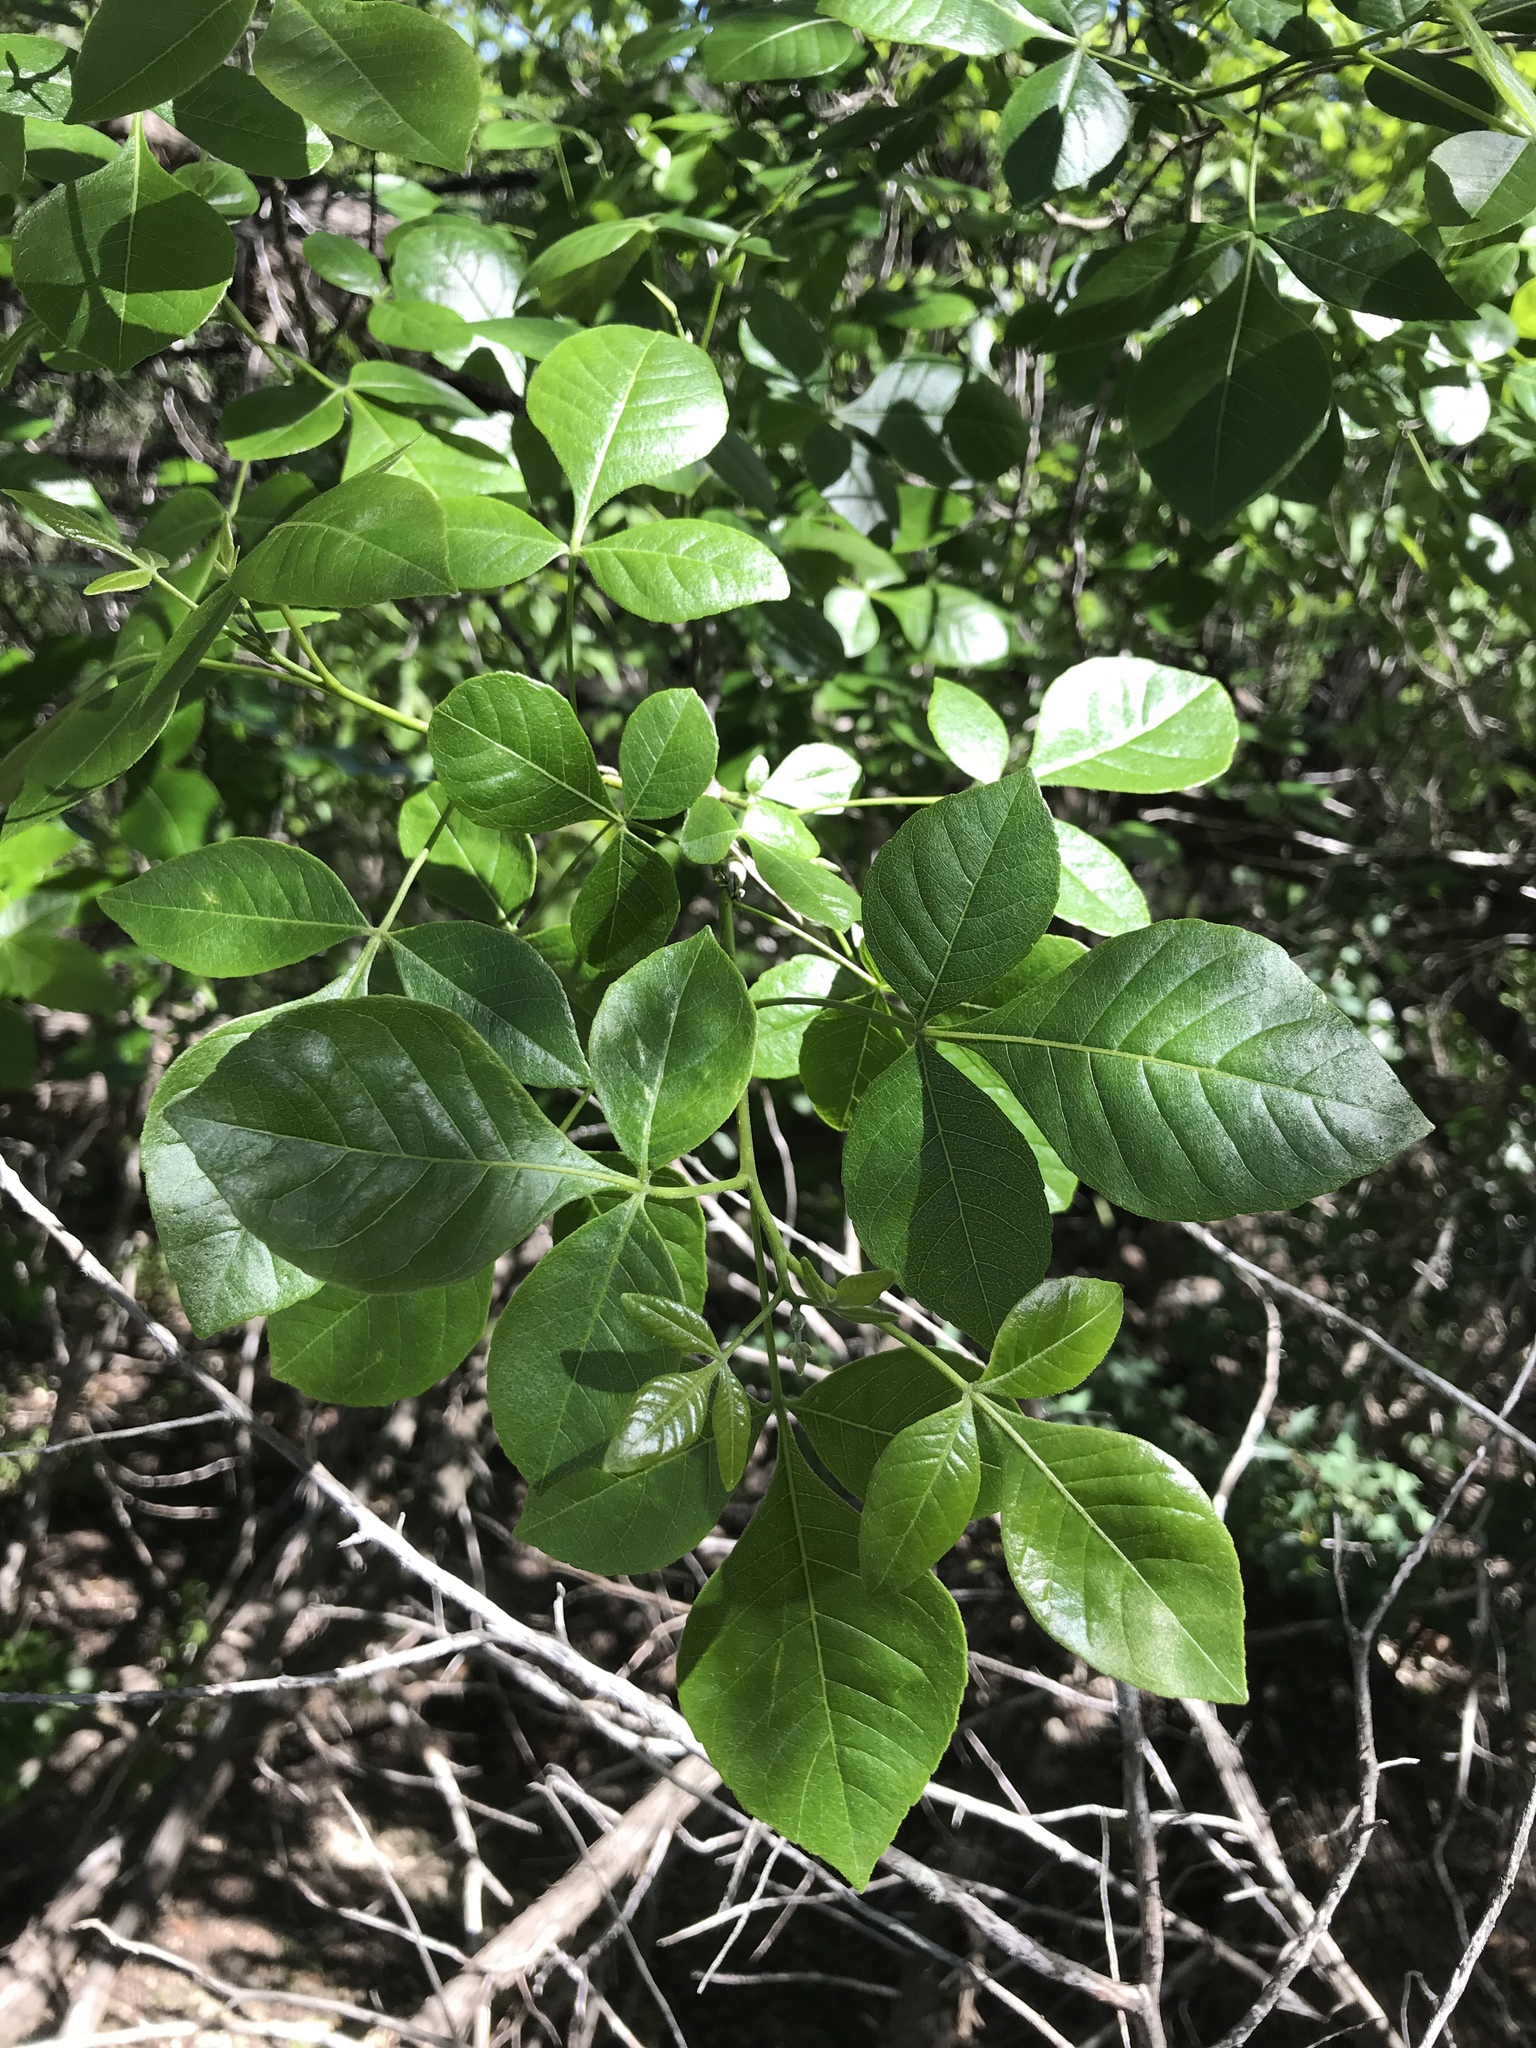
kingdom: Plantae
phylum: Tracheophyta
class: Magnoliopsida
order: Sapindales
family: Rutaceae
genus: Ptelea
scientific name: Ptelea trifoliata
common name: Common hop-tree
